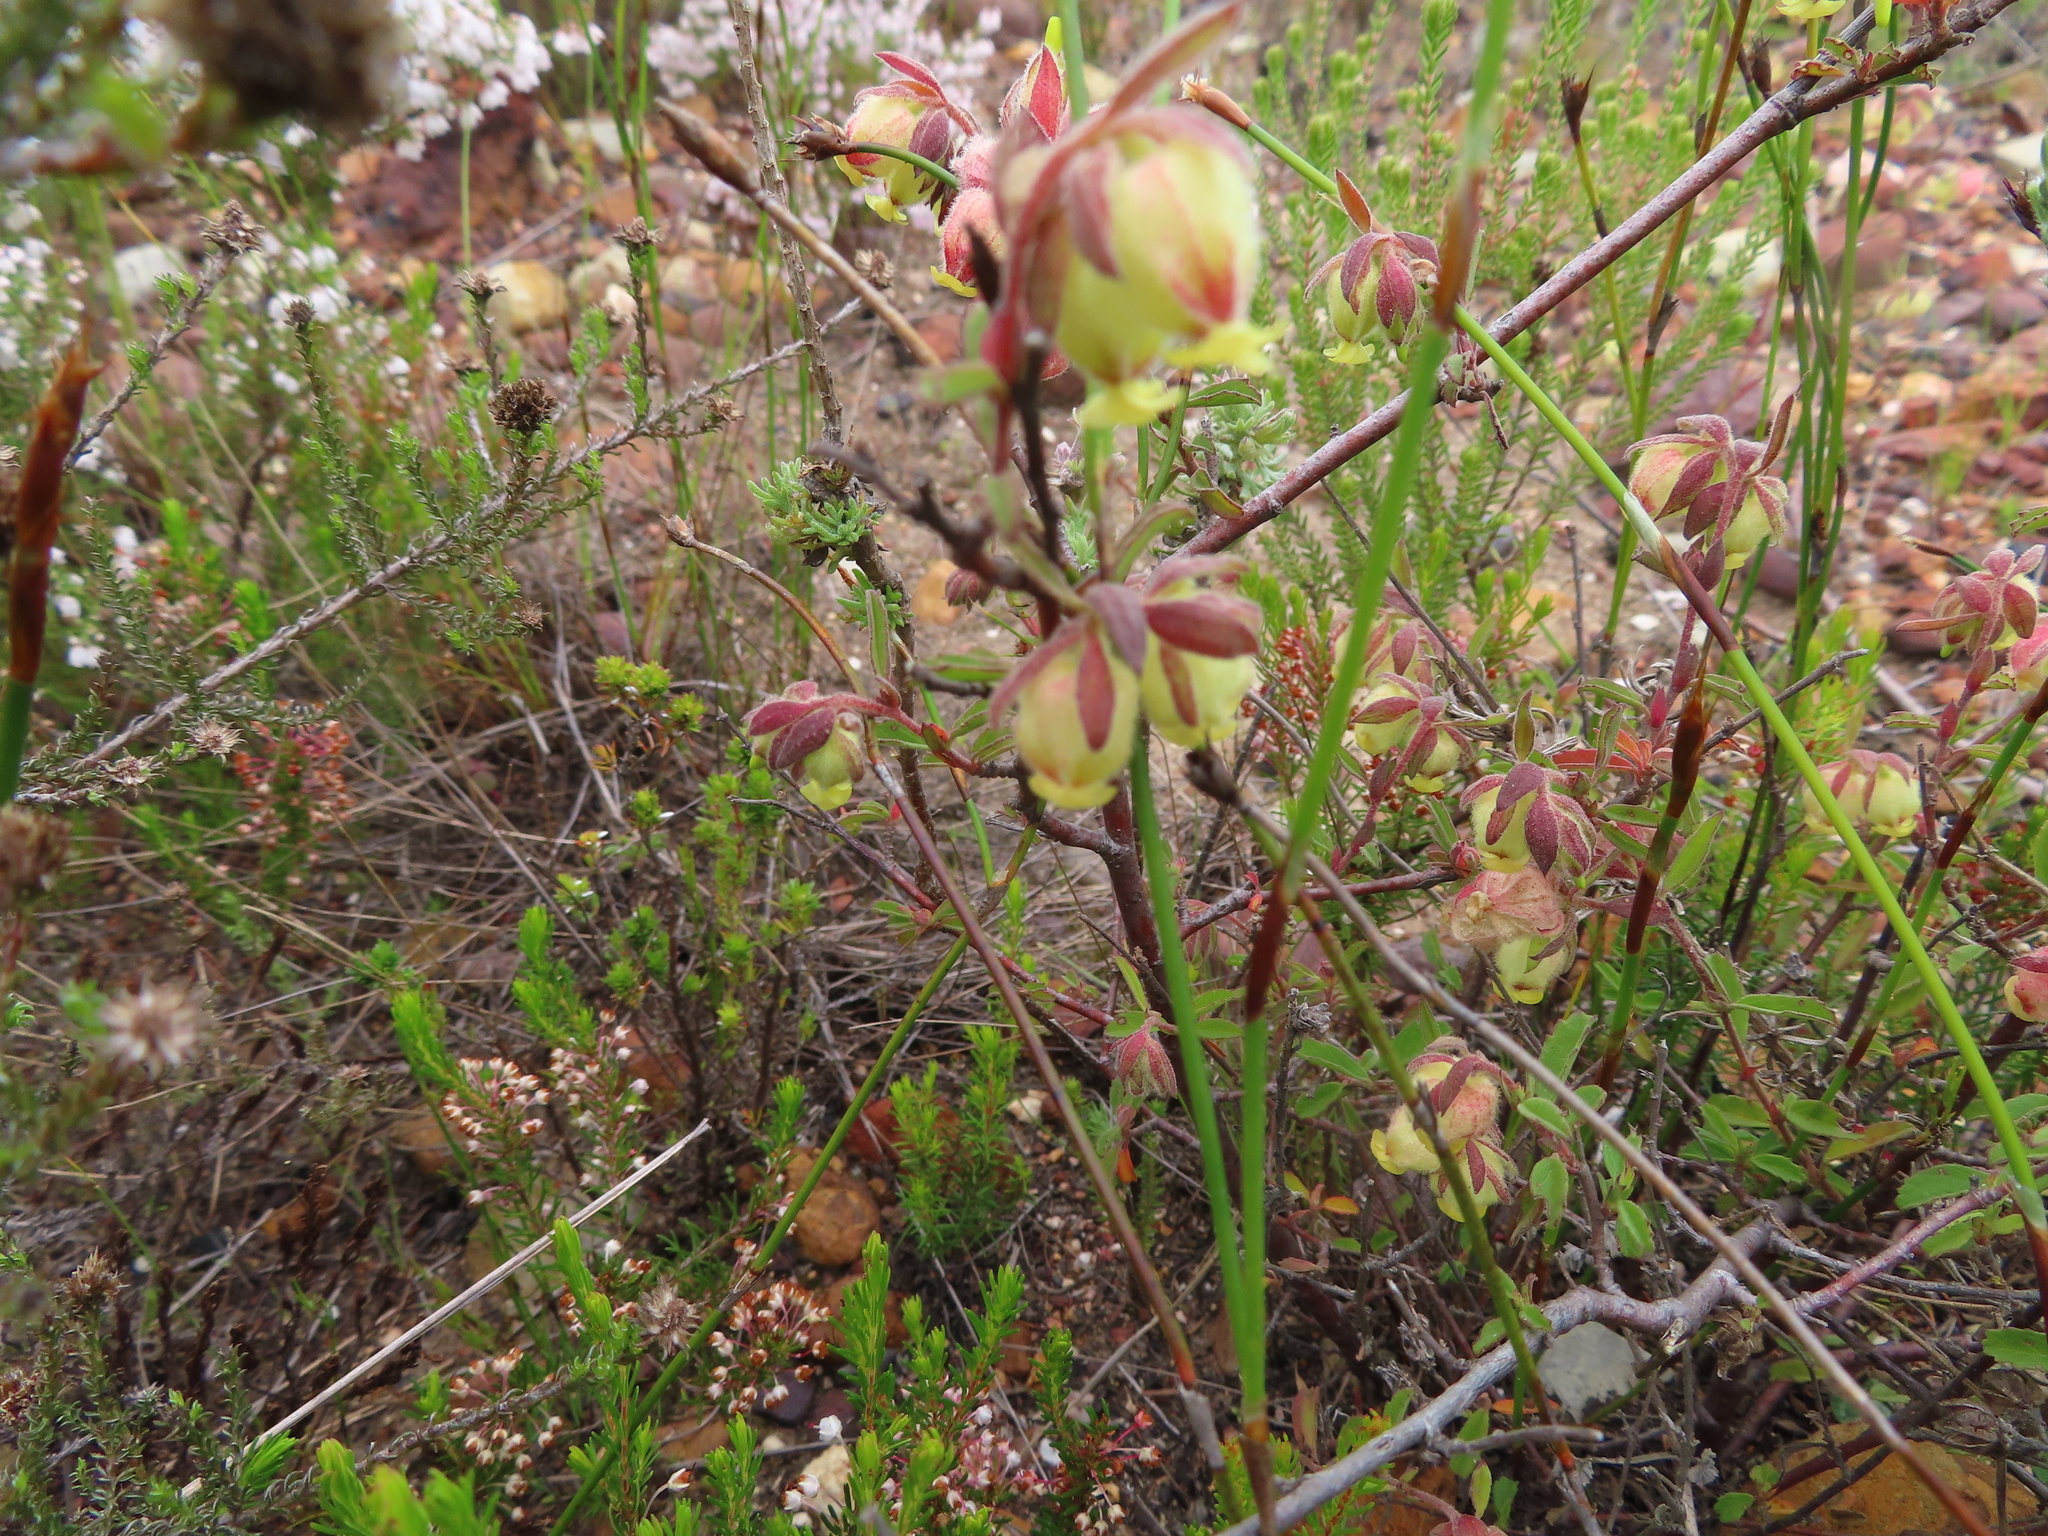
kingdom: Plantae
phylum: Tracheophyta
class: Magnoliopsida
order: Malvales
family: Malvaceae
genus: Hermannia
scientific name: Hermannia hyssopifolia
